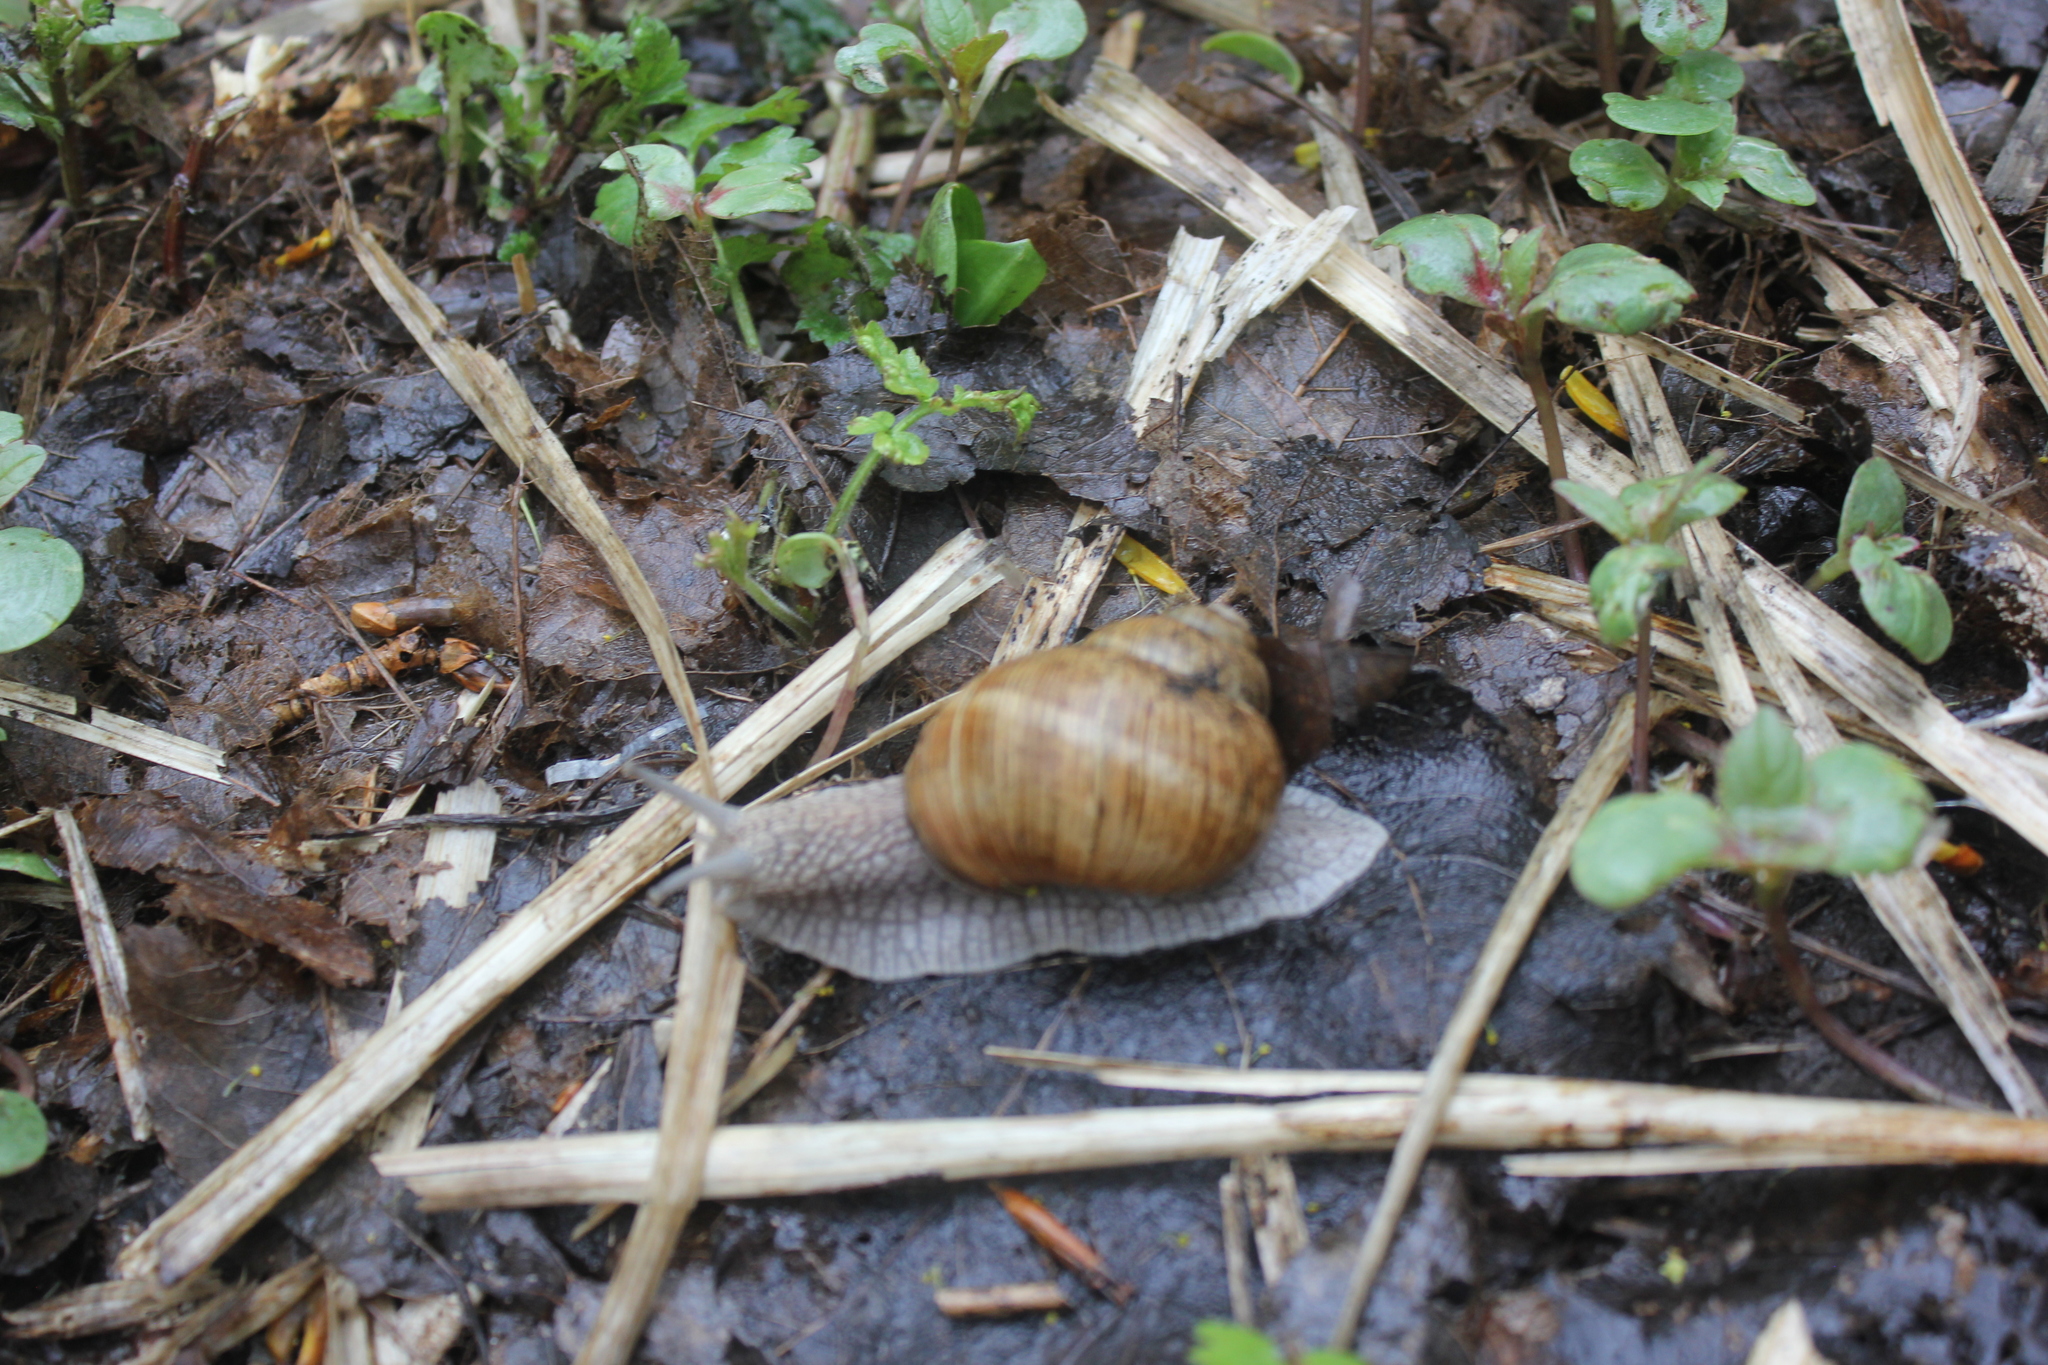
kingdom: Animalia
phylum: Mollusca
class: Gastropoda
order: Stylommatophora
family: Helicidae
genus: Helix
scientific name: Helix pomatia
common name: Roman snail
